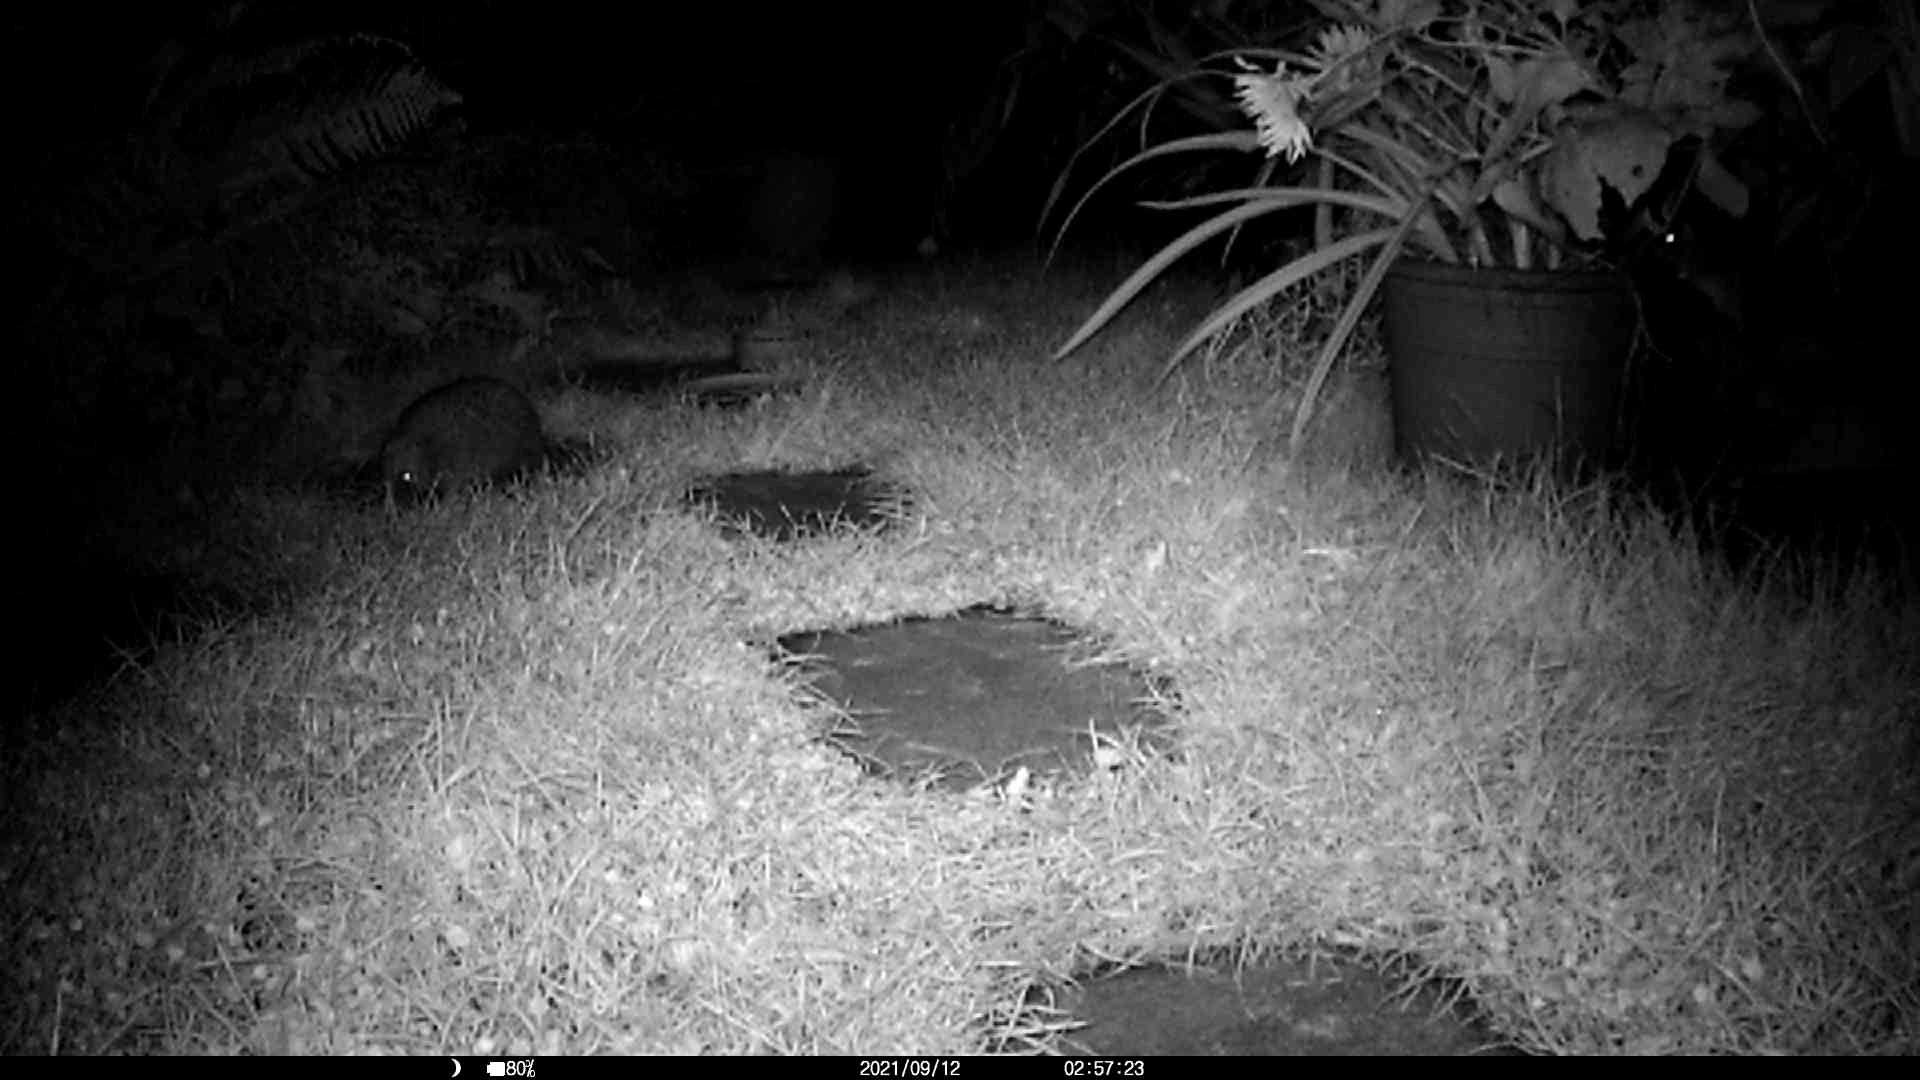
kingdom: Animalia
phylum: Chordata
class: Mammalia
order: Erinaceomorpha
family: Erinaceidae
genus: Erinaceus
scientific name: Erinaceus europaeus
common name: West european hedgehog
